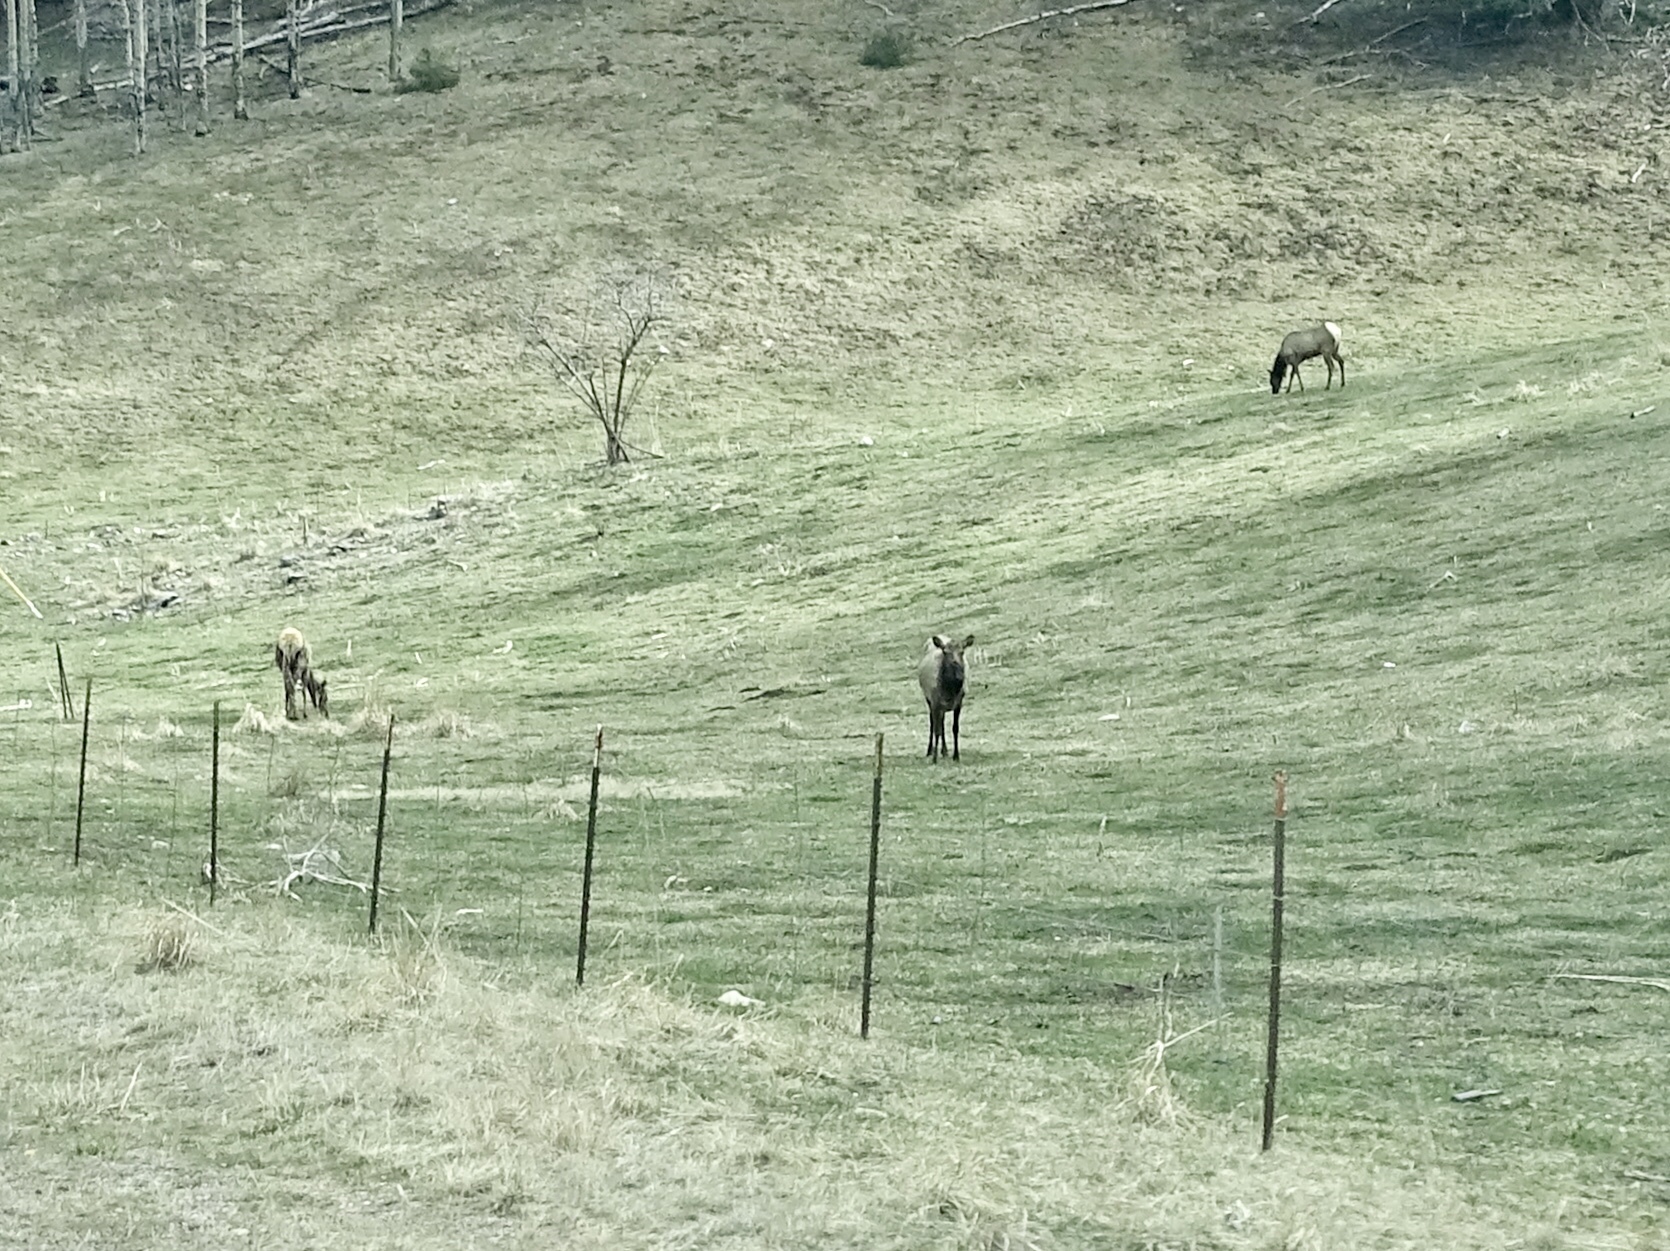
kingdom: Animalia
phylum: Chordata
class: Mammalia
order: Artiodactyla
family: Cervidae
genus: Cervus
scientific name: Cervus elaphus
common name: Red deer
